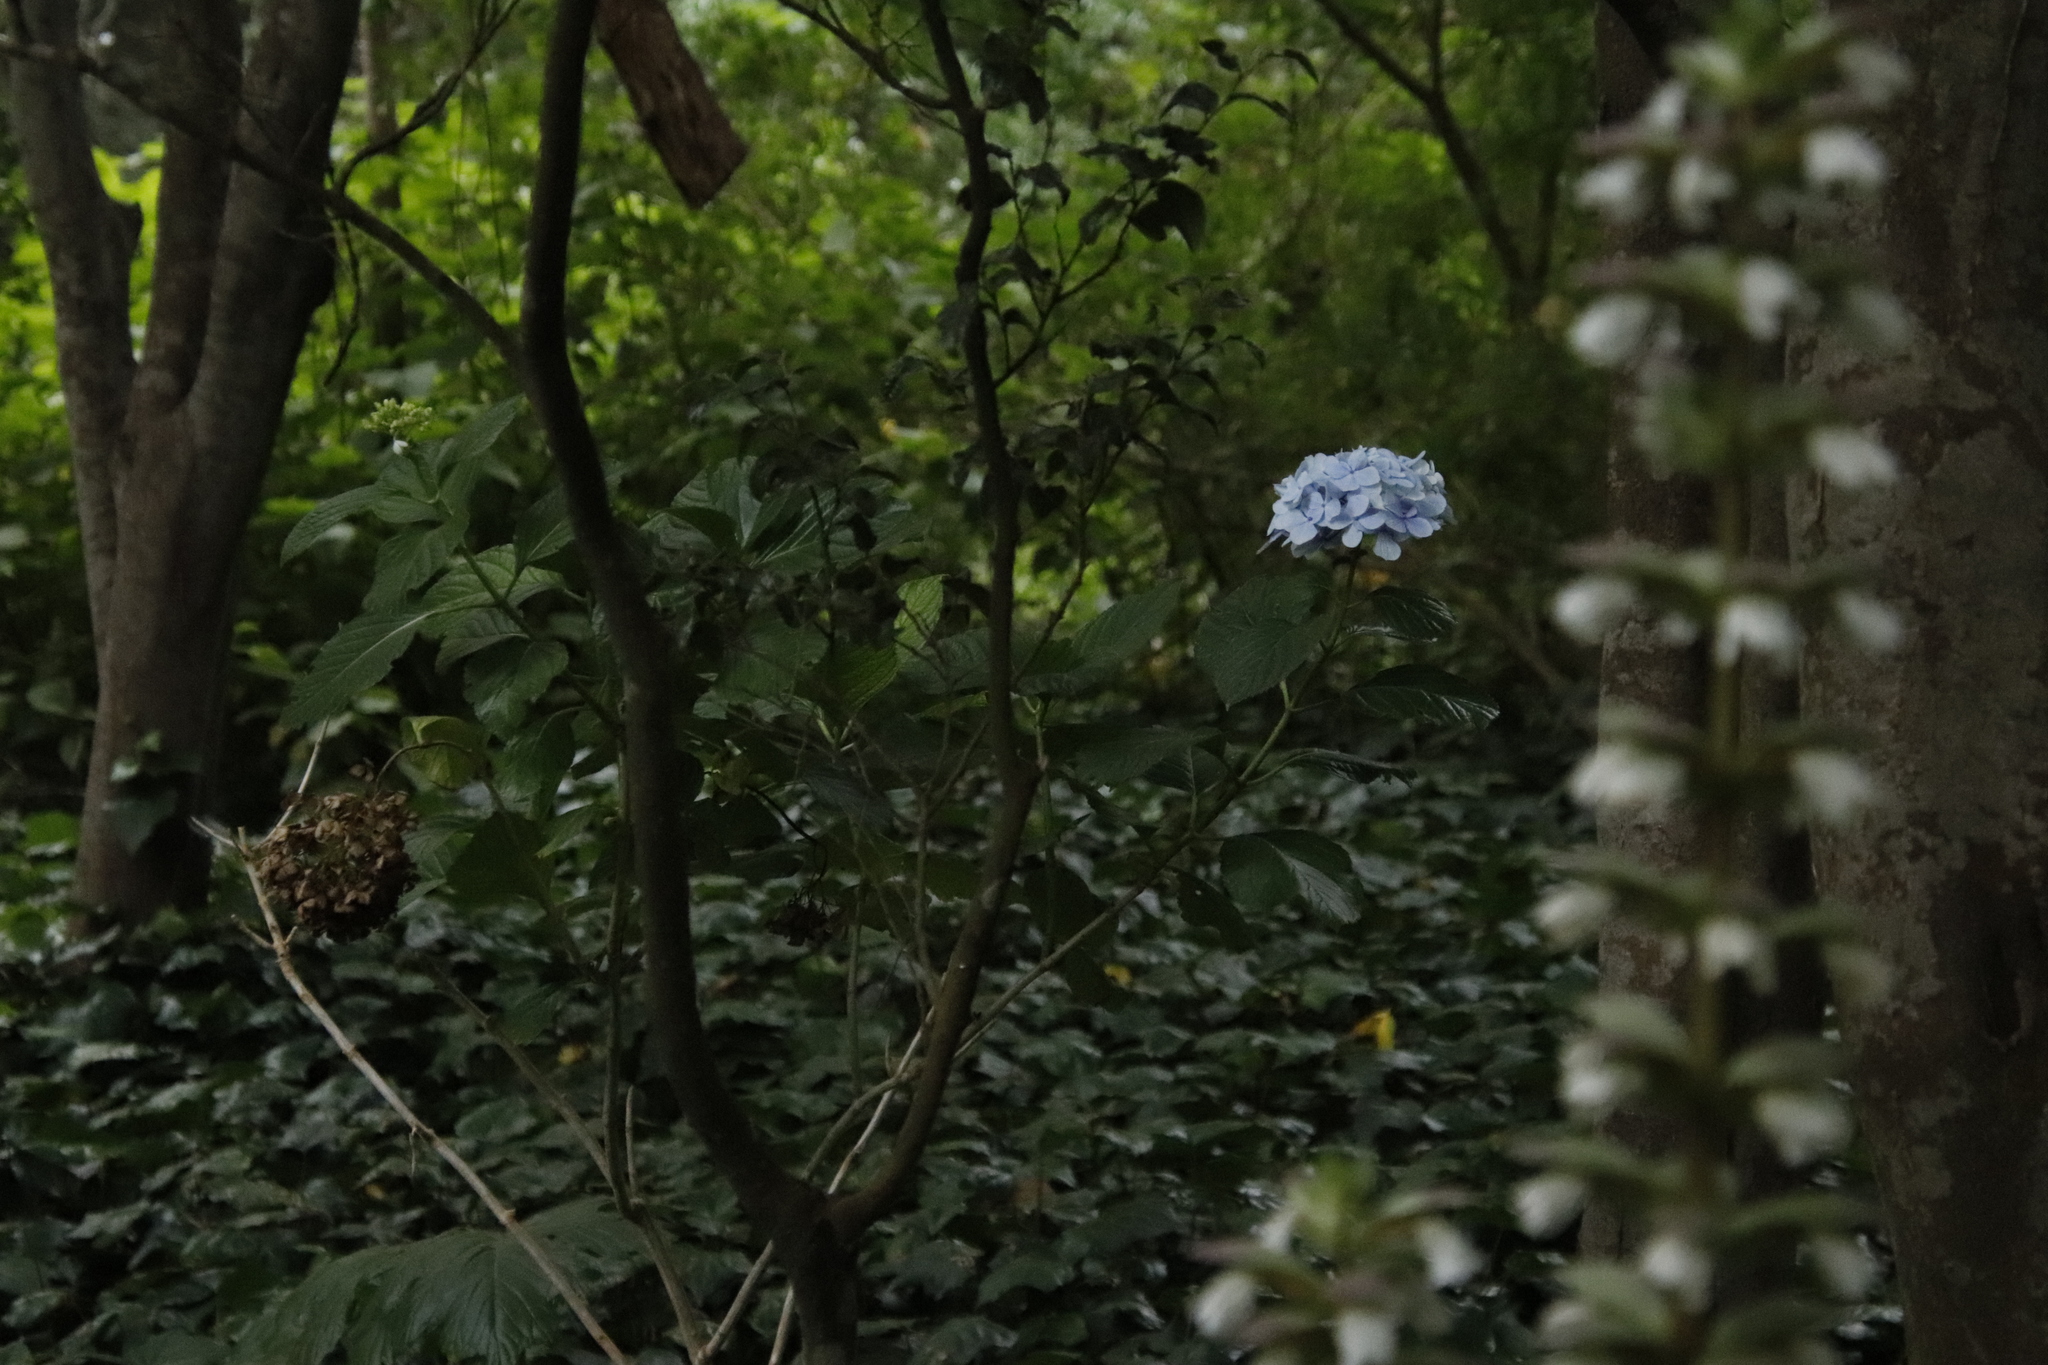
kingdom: Plantae
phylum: Tracheophyta
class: Magnoliopsida
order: Cornales
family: Hydrangeaceae
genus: Hydrangea
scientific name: Hydrangea macrophylla
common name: Hydrangea
